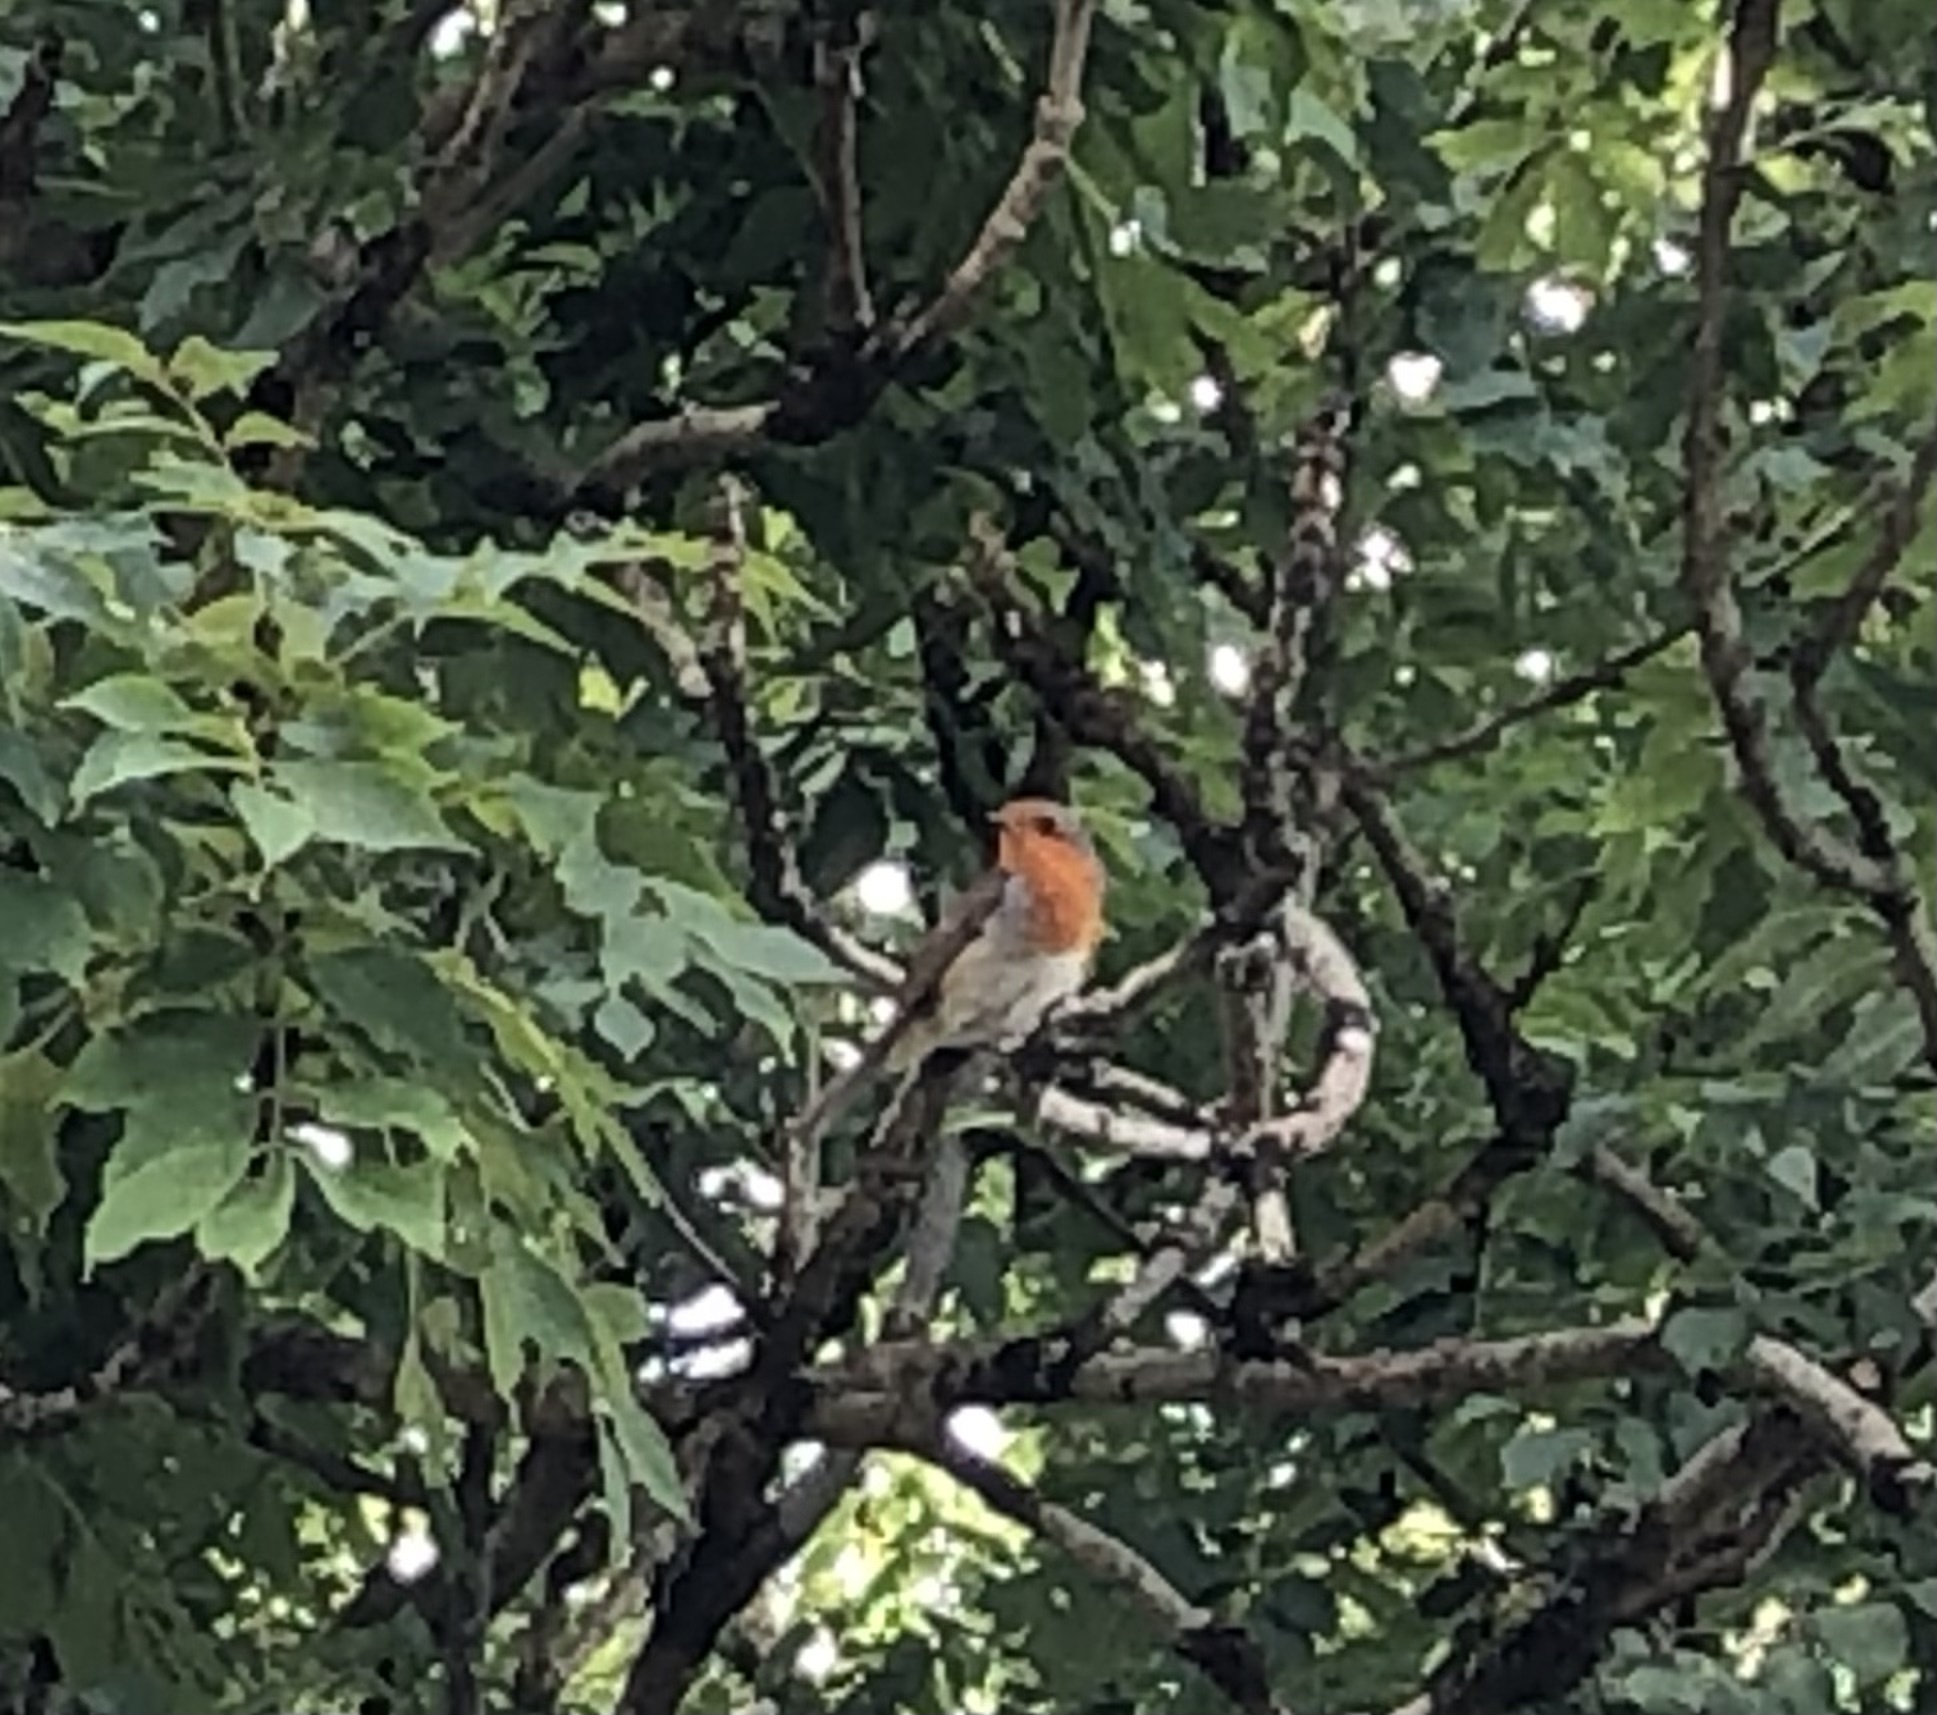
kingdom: Animalia
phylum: Chordata
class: Aves
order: Passeriformes
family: Muscicapidae
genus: Erithacus
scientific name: Erithacus rubecula
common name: European robin
